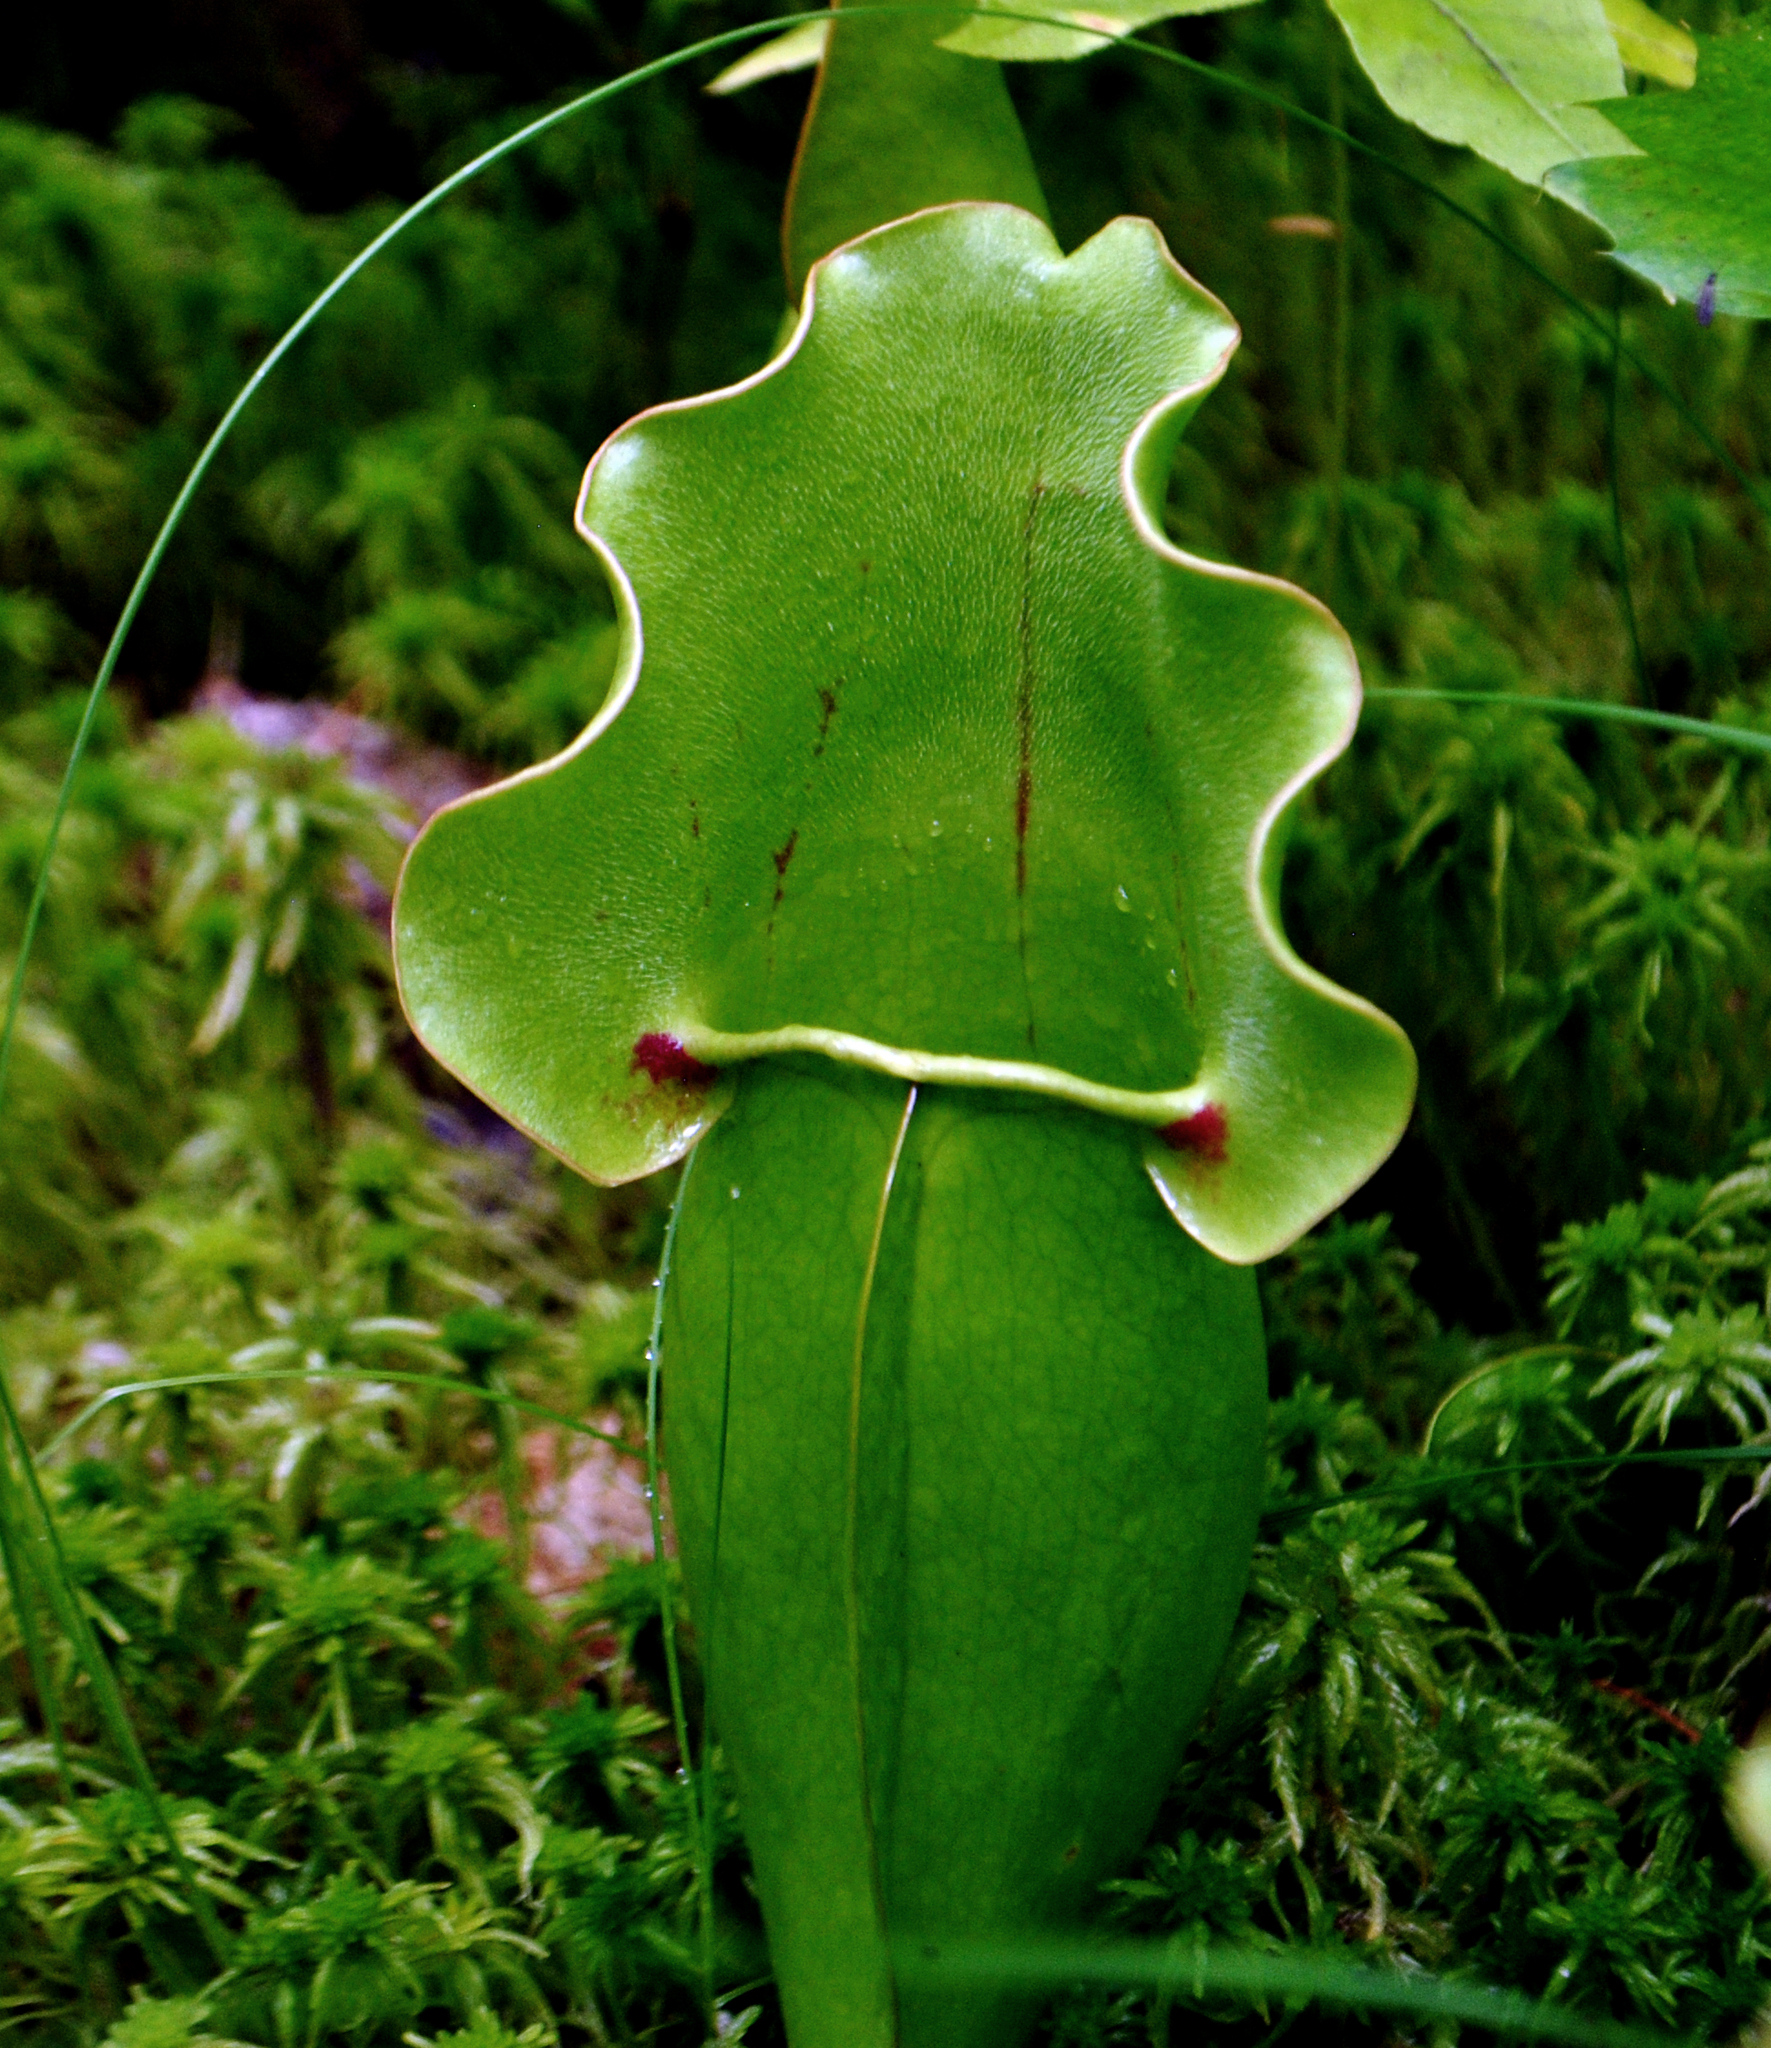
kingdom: Plantae
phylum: Tracheophyta
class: Magnoliopsida
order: Ericales
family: Sarraceniaceae
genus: Sarracenia
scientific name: Sarracenia purpurea
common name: Pitcherplant
